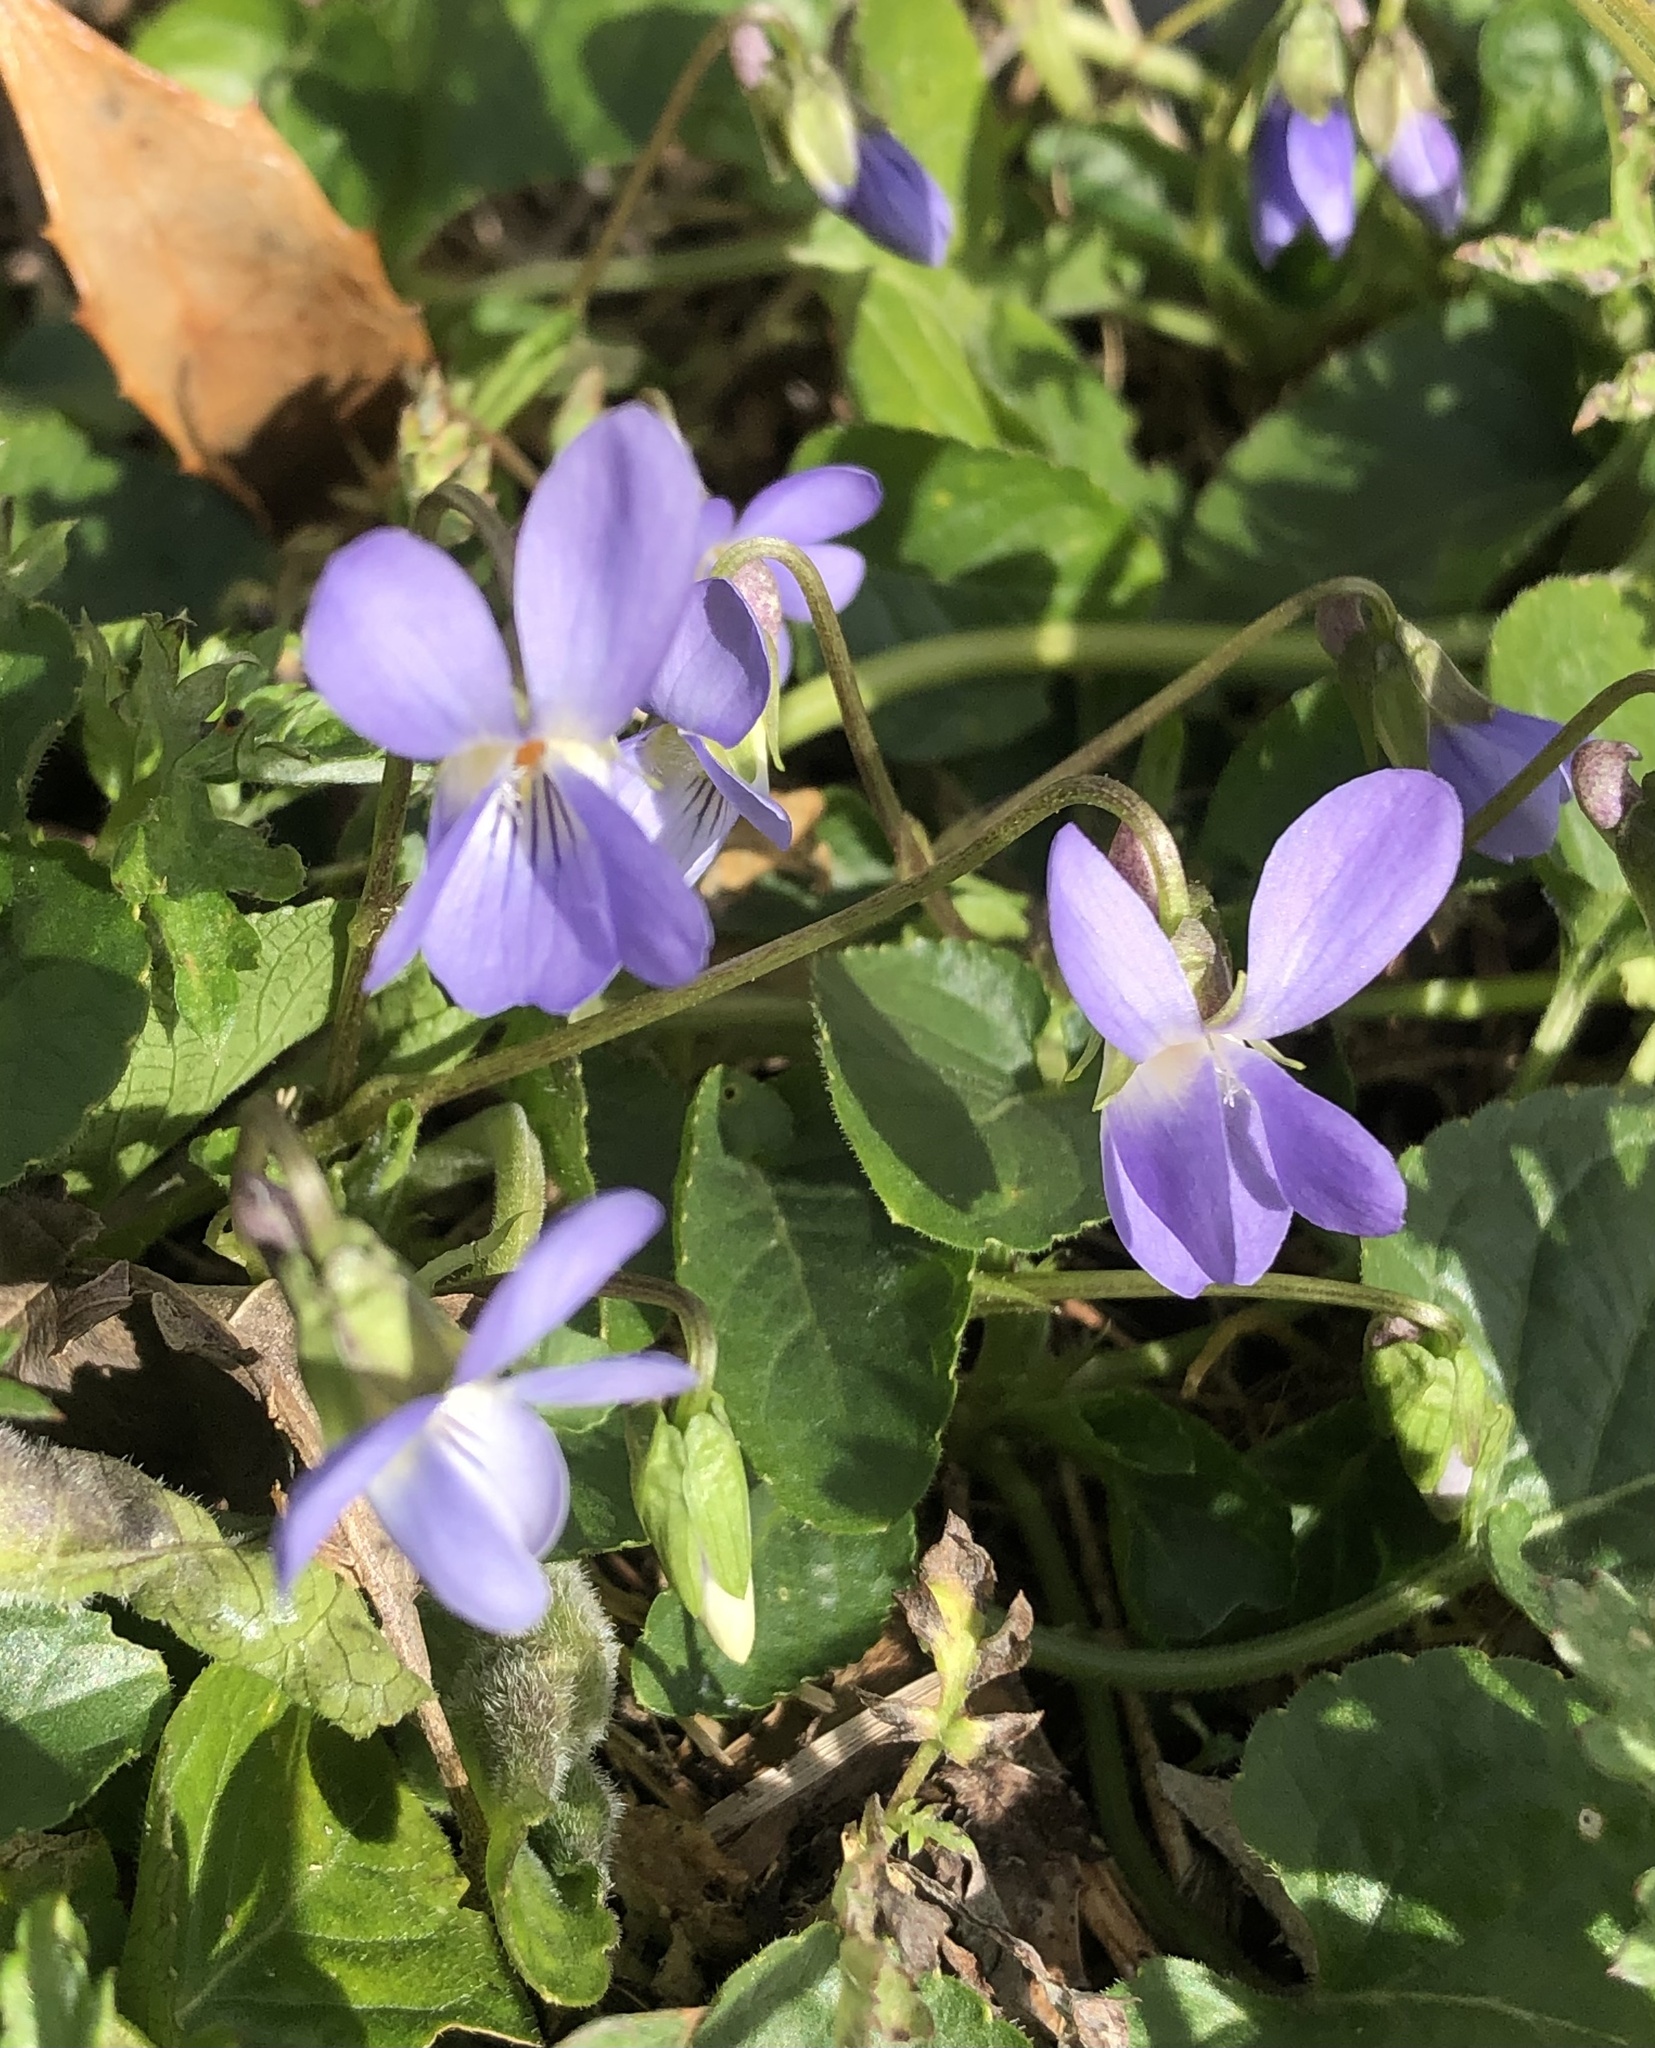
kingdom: Plantae
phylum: Tracheophyta
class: Magnoliopsida
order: Malpighiales
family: Violaceae
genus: Viola
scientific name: Viola suavis
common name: Russian violet
